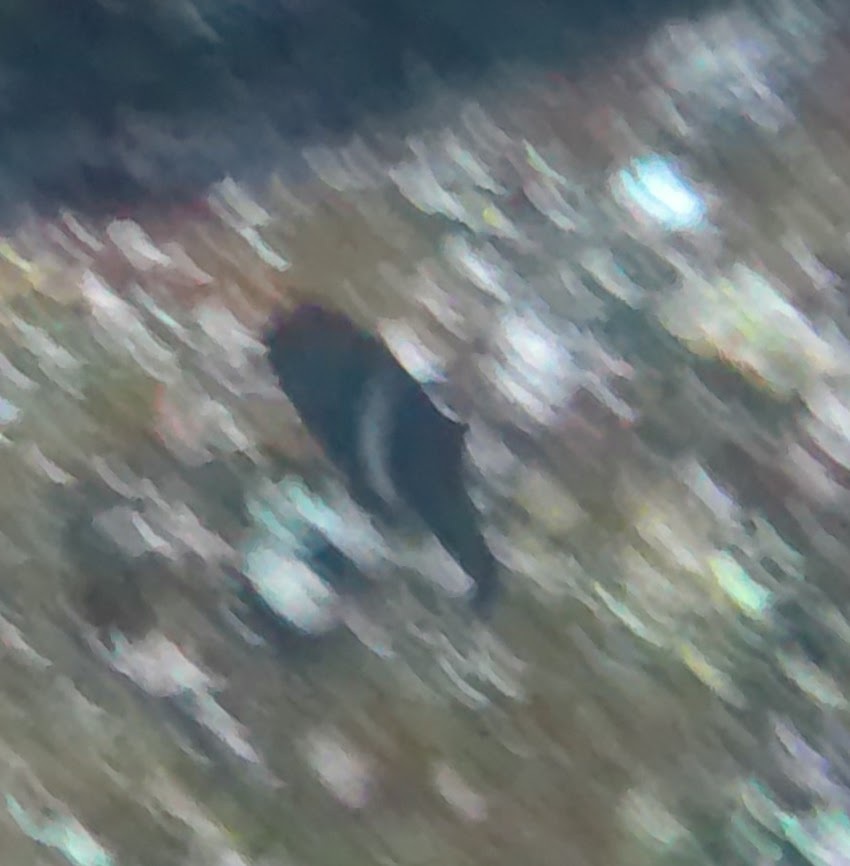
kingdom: Animalia
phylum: Chordata
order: Perciformes
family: Pomacentridae
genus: Parma
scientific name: Parma unifasciata
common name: Girdled parma
